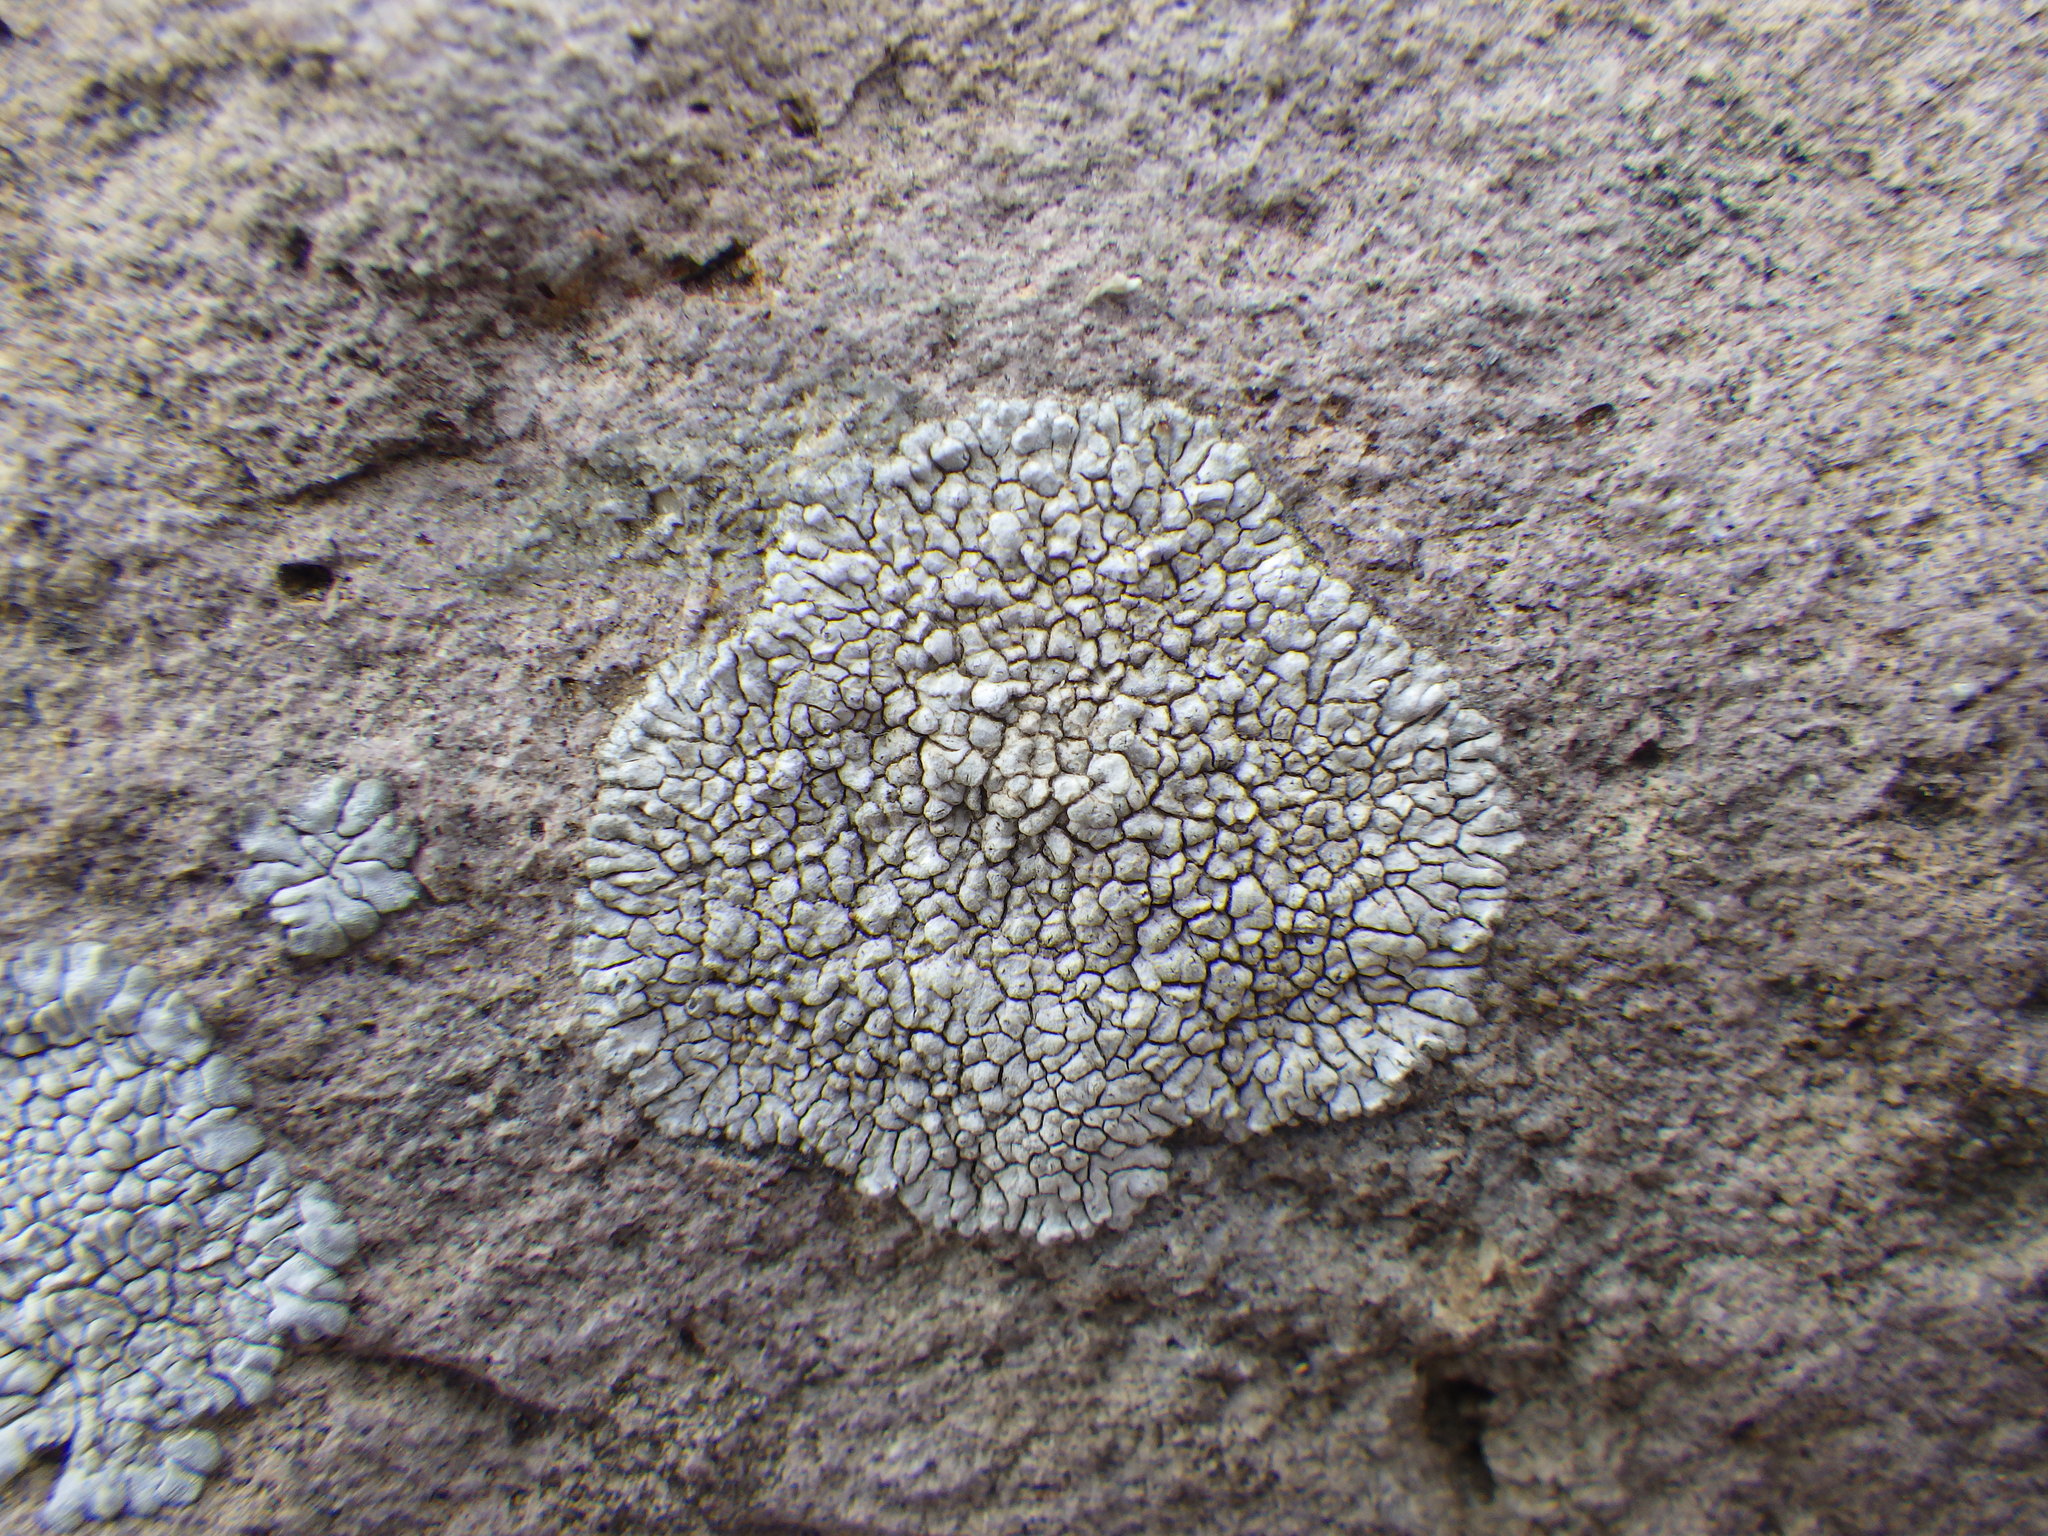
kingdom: Fungi
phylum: Ascomycota
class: Lecanoromycetes
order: Caliciales
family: Caliciaceae
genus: Dimelaena
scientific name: Dimelaena radiata
